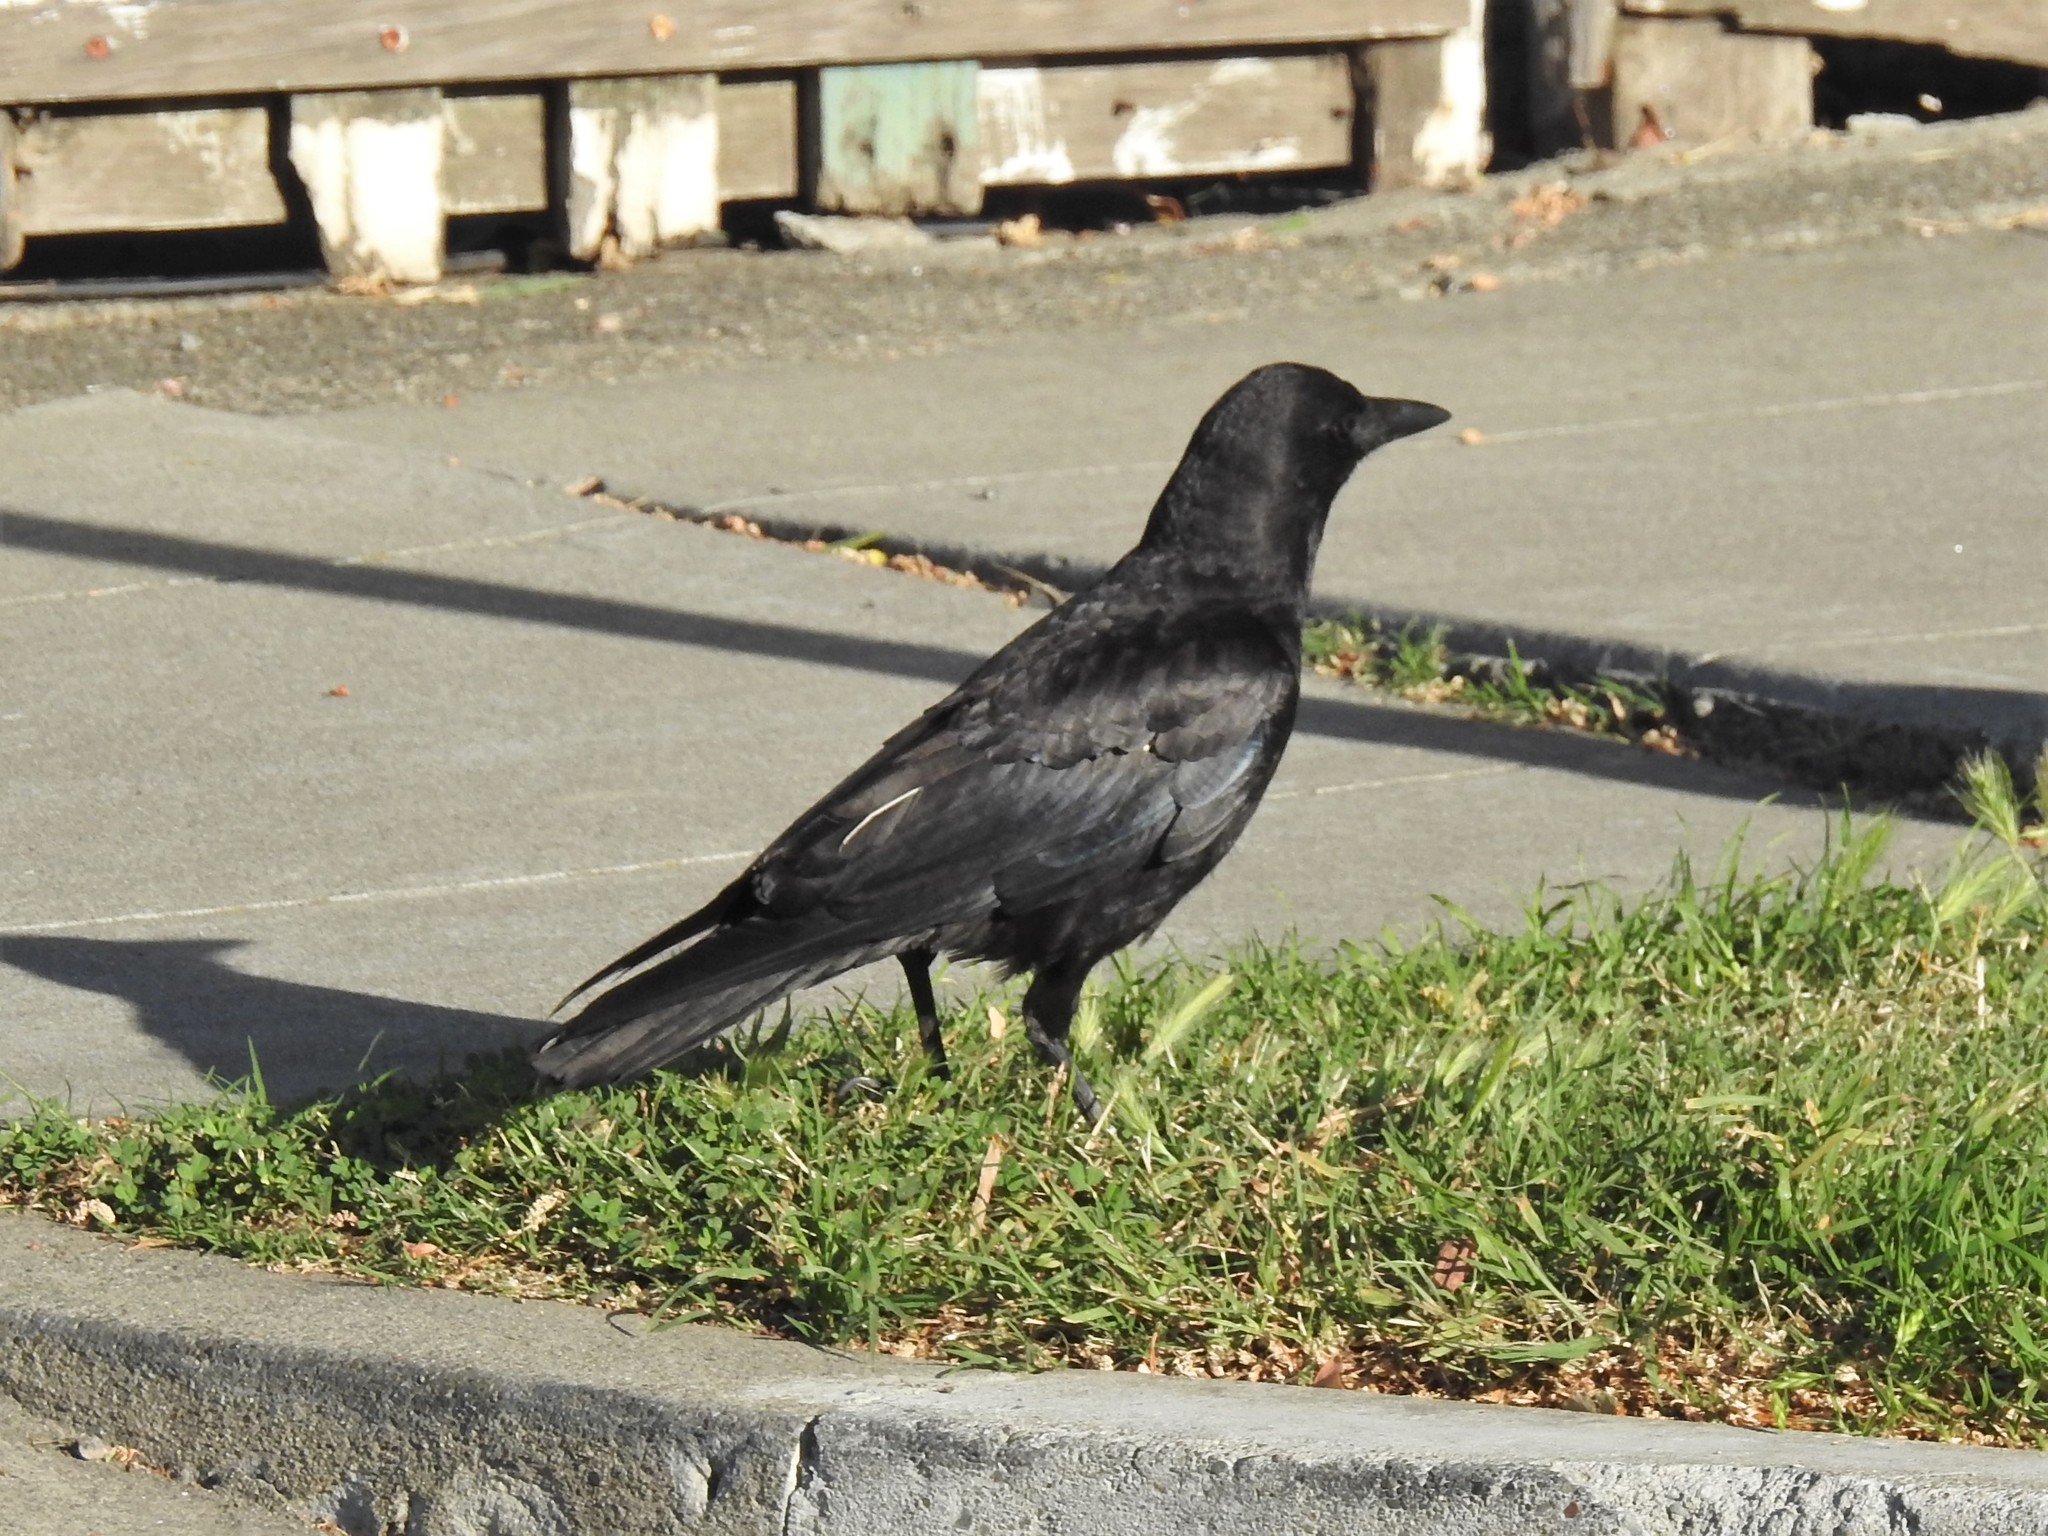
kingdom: Animalia
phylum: Chordata
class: Aves
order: Passeriformes
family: Corvidae
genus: Corvus
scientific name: Corvus brachyrhynchos
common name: American crow
